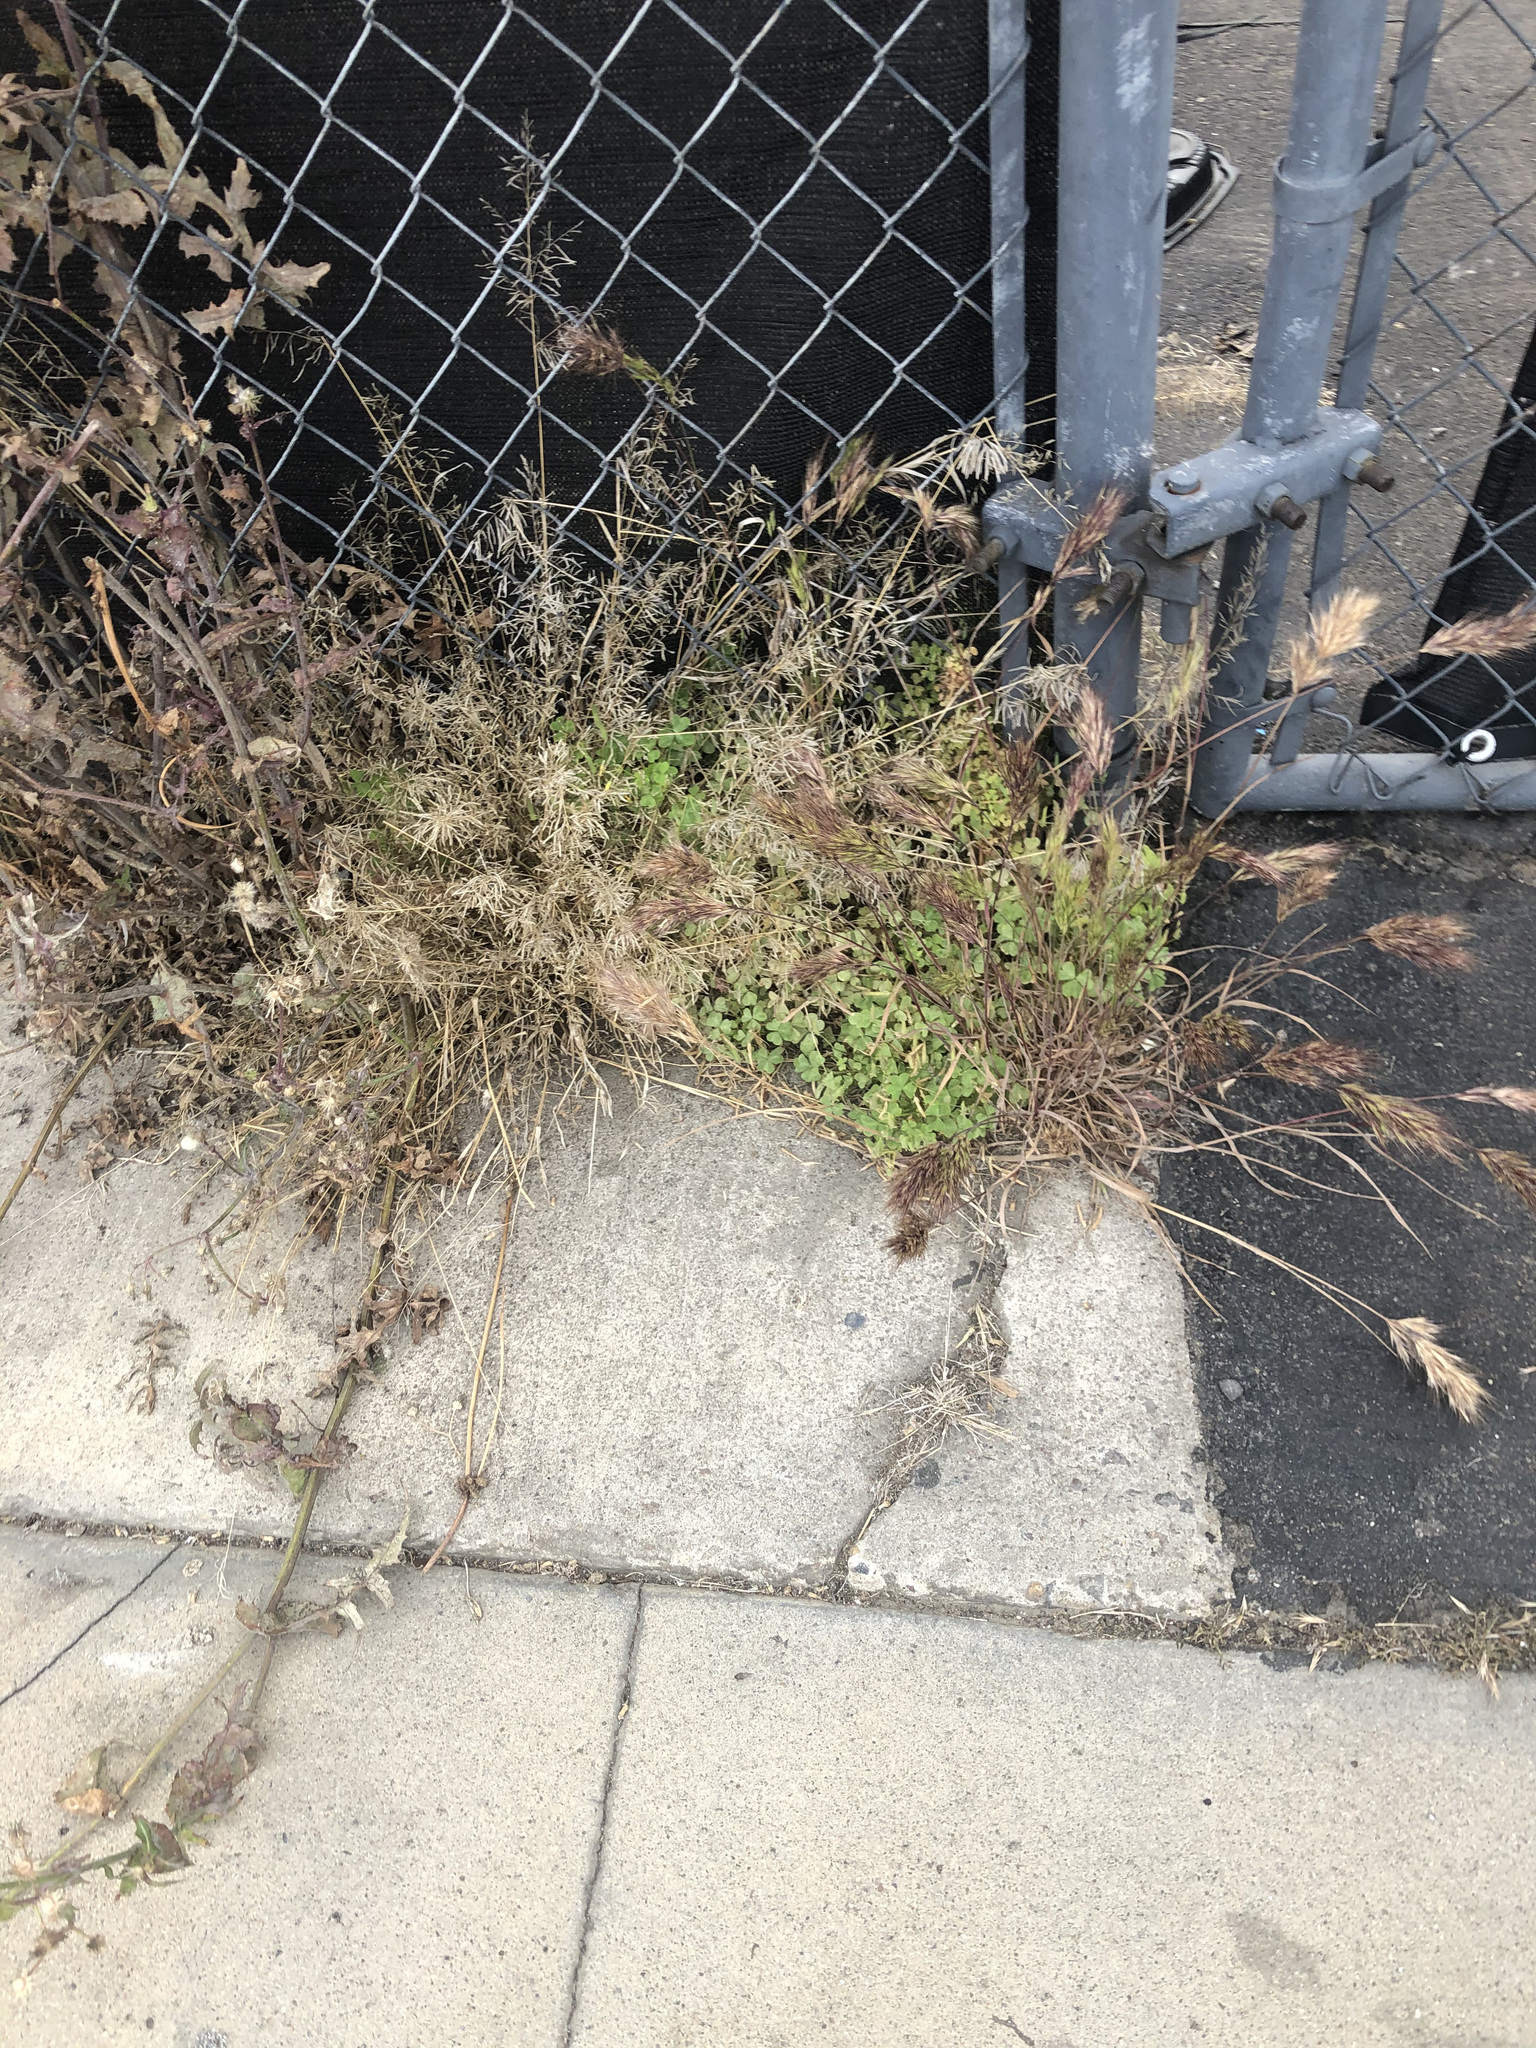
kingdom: Plantae
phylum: Tracheophyta
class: Liliopsida
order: Poales
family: Poaceae
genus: Bromus
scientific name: Bromus rubens
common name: Red brome
